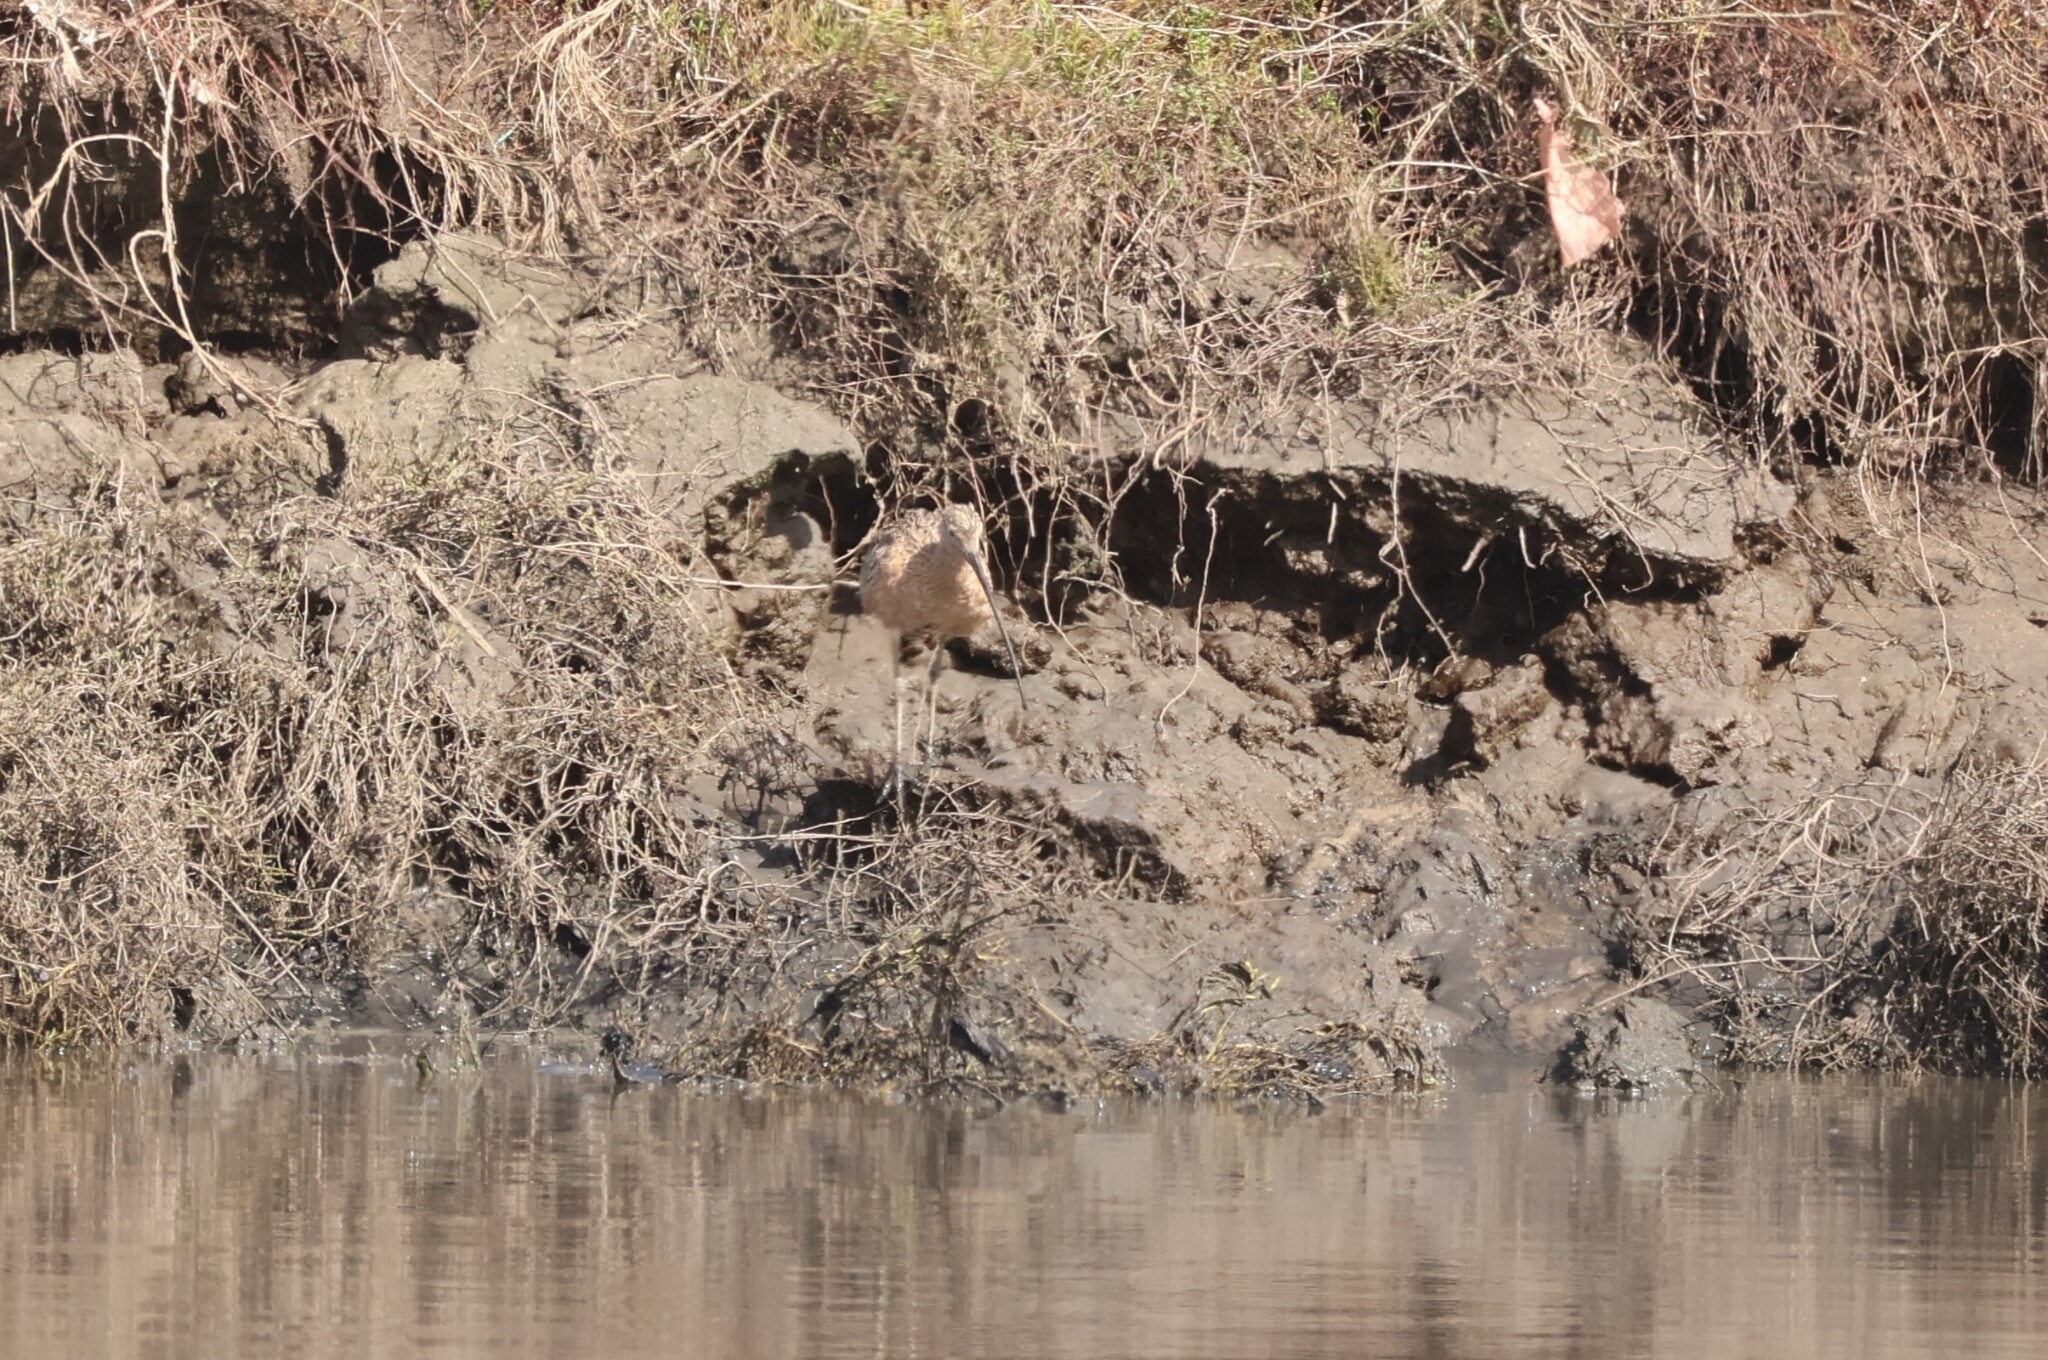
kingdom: Animalia
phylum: Chordata
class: Aves
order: Charadriiformes
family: Scolopacidae
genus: Numenius
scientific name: Numenius americanus
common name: Long-billed curlew
